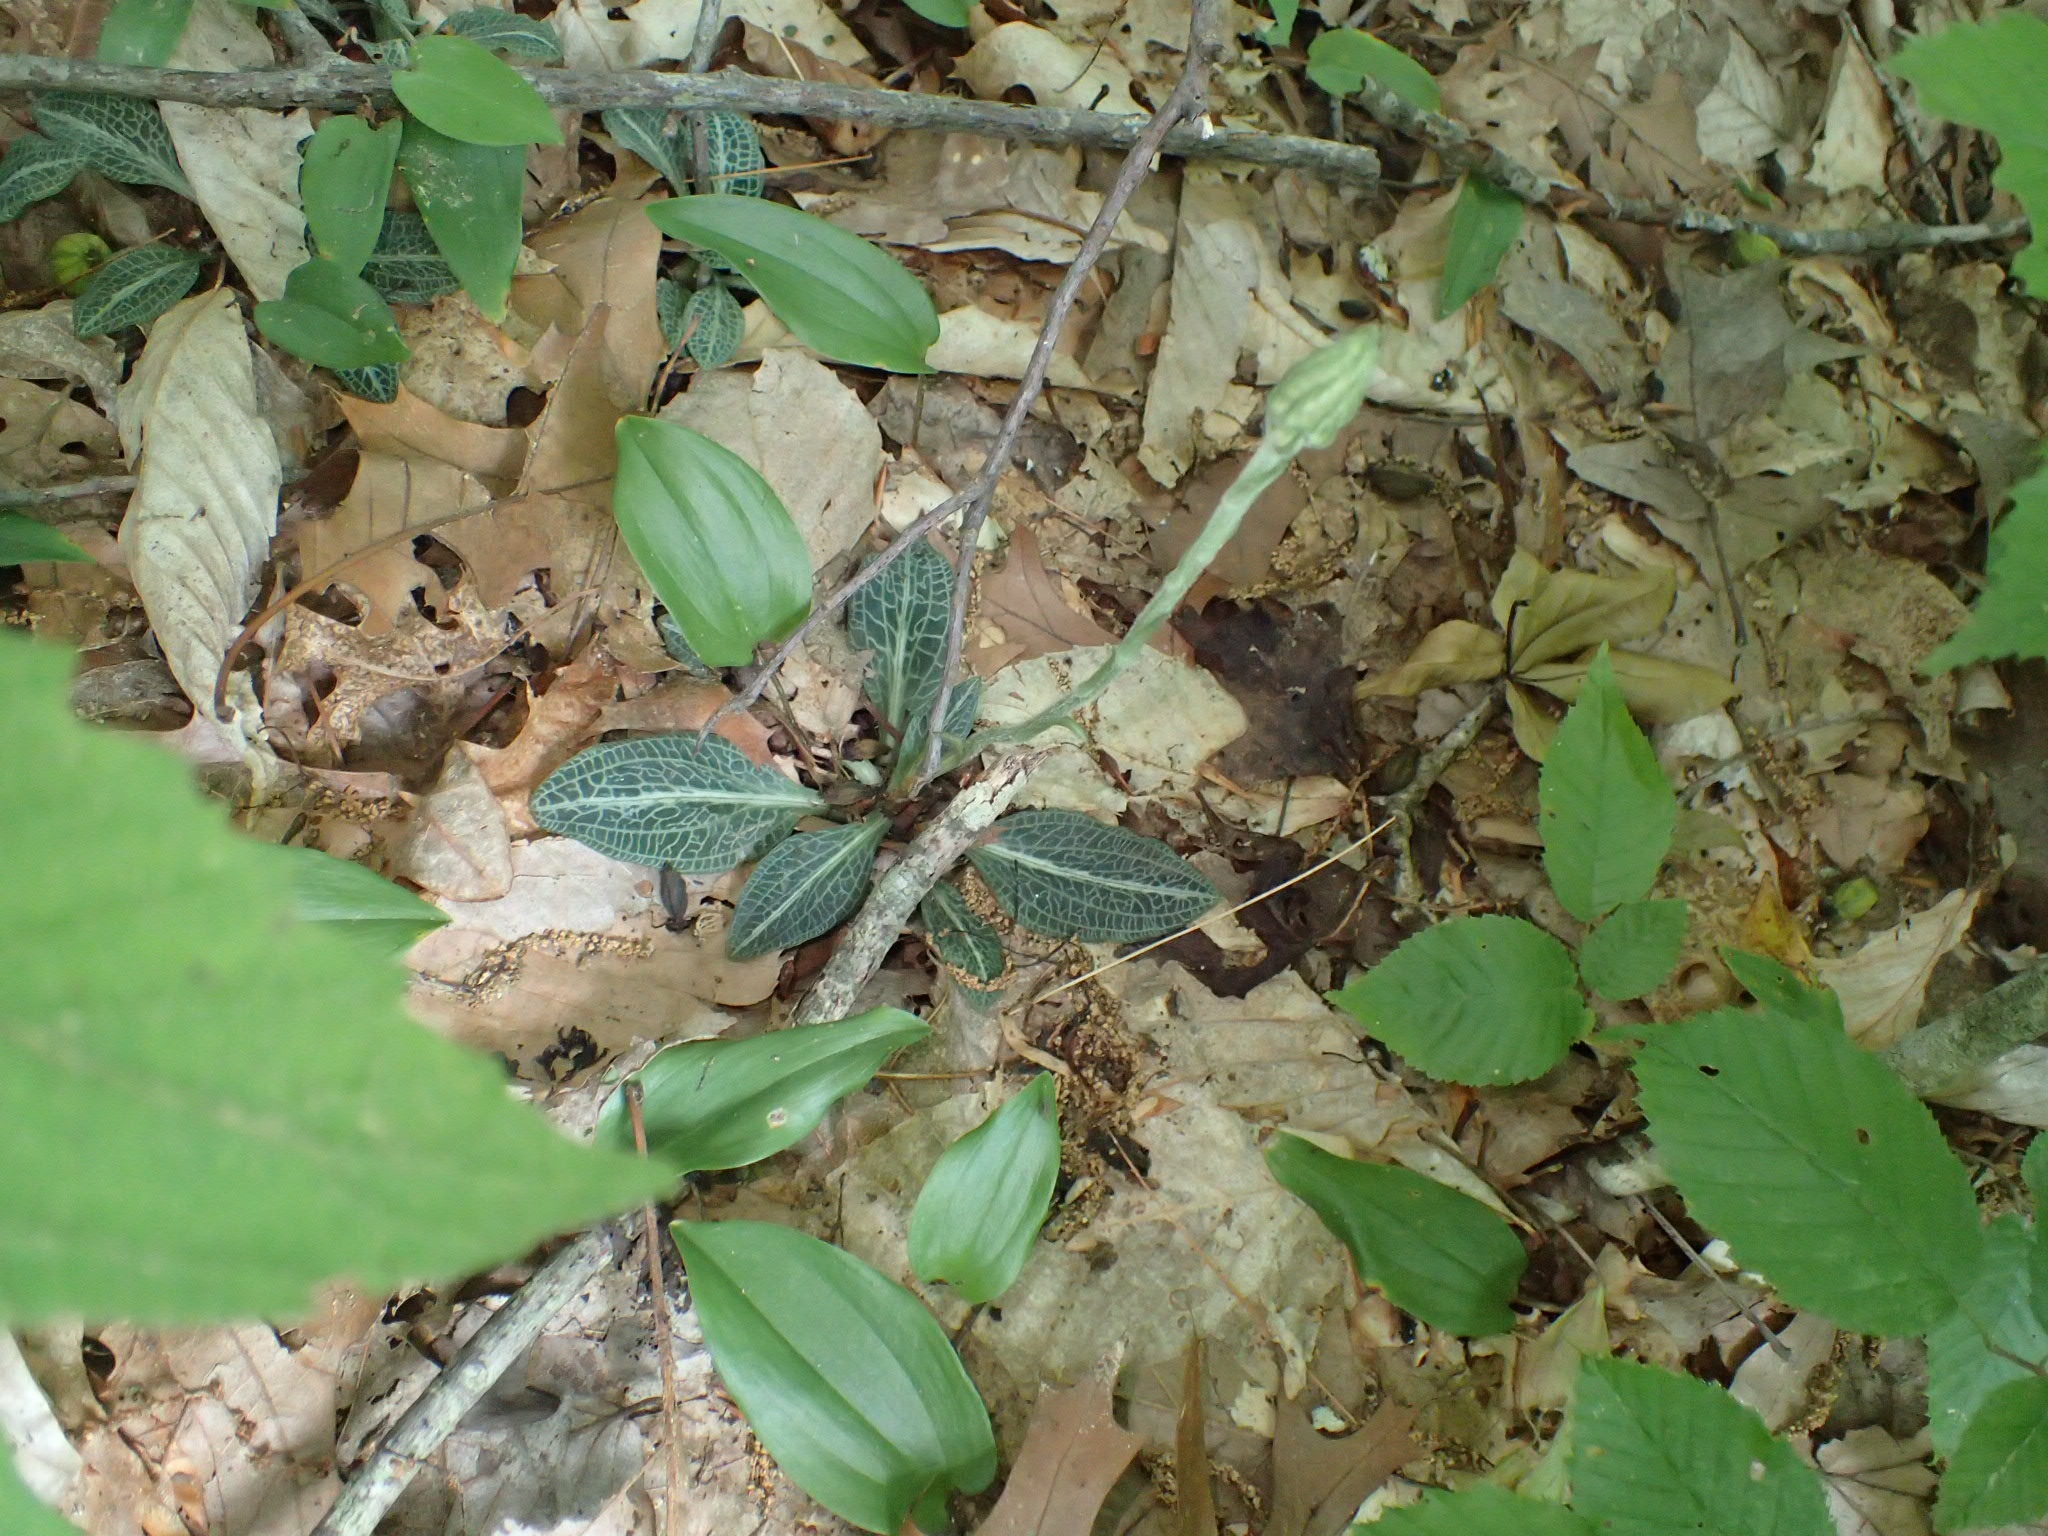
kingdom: Plantae
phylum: Tracheophyta
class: Liliopsida
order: Asparagales
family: Orchidaceae
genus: Goodyera
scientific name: Goodyera pubescens
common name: Downy rattlesnake-plantain
